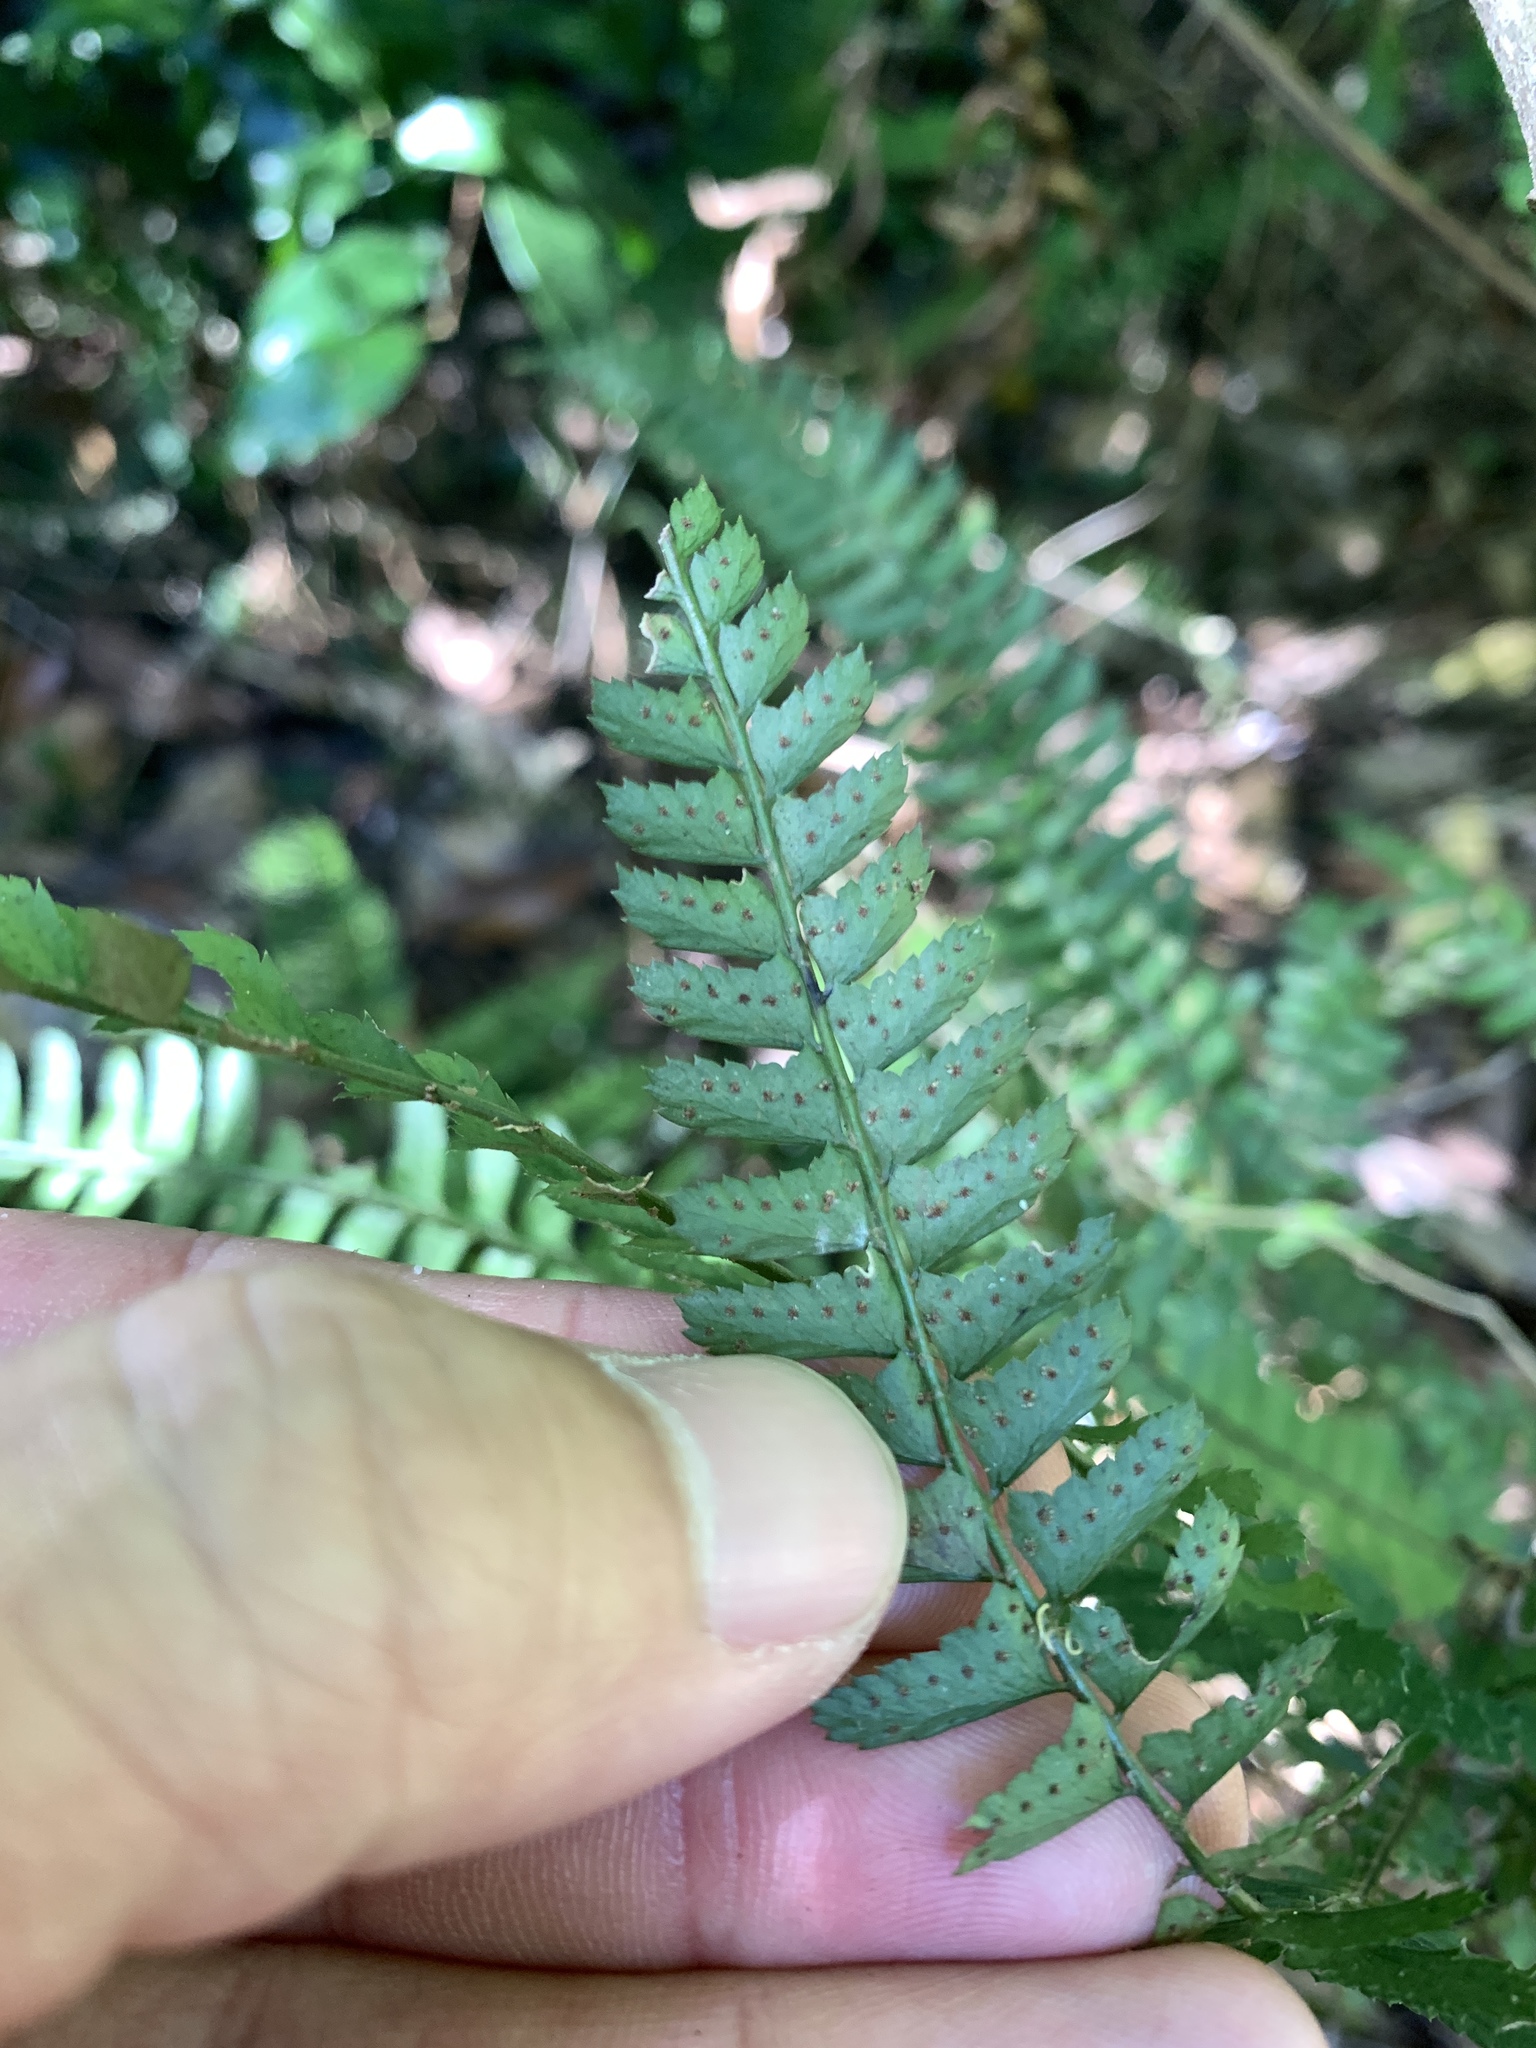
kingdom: Plantae
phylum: Tracheophyta
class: Polypodiopsida
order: Polypodiales
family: Dryopteridaceae
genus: Polystichum
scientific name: Polystichum hancockii
